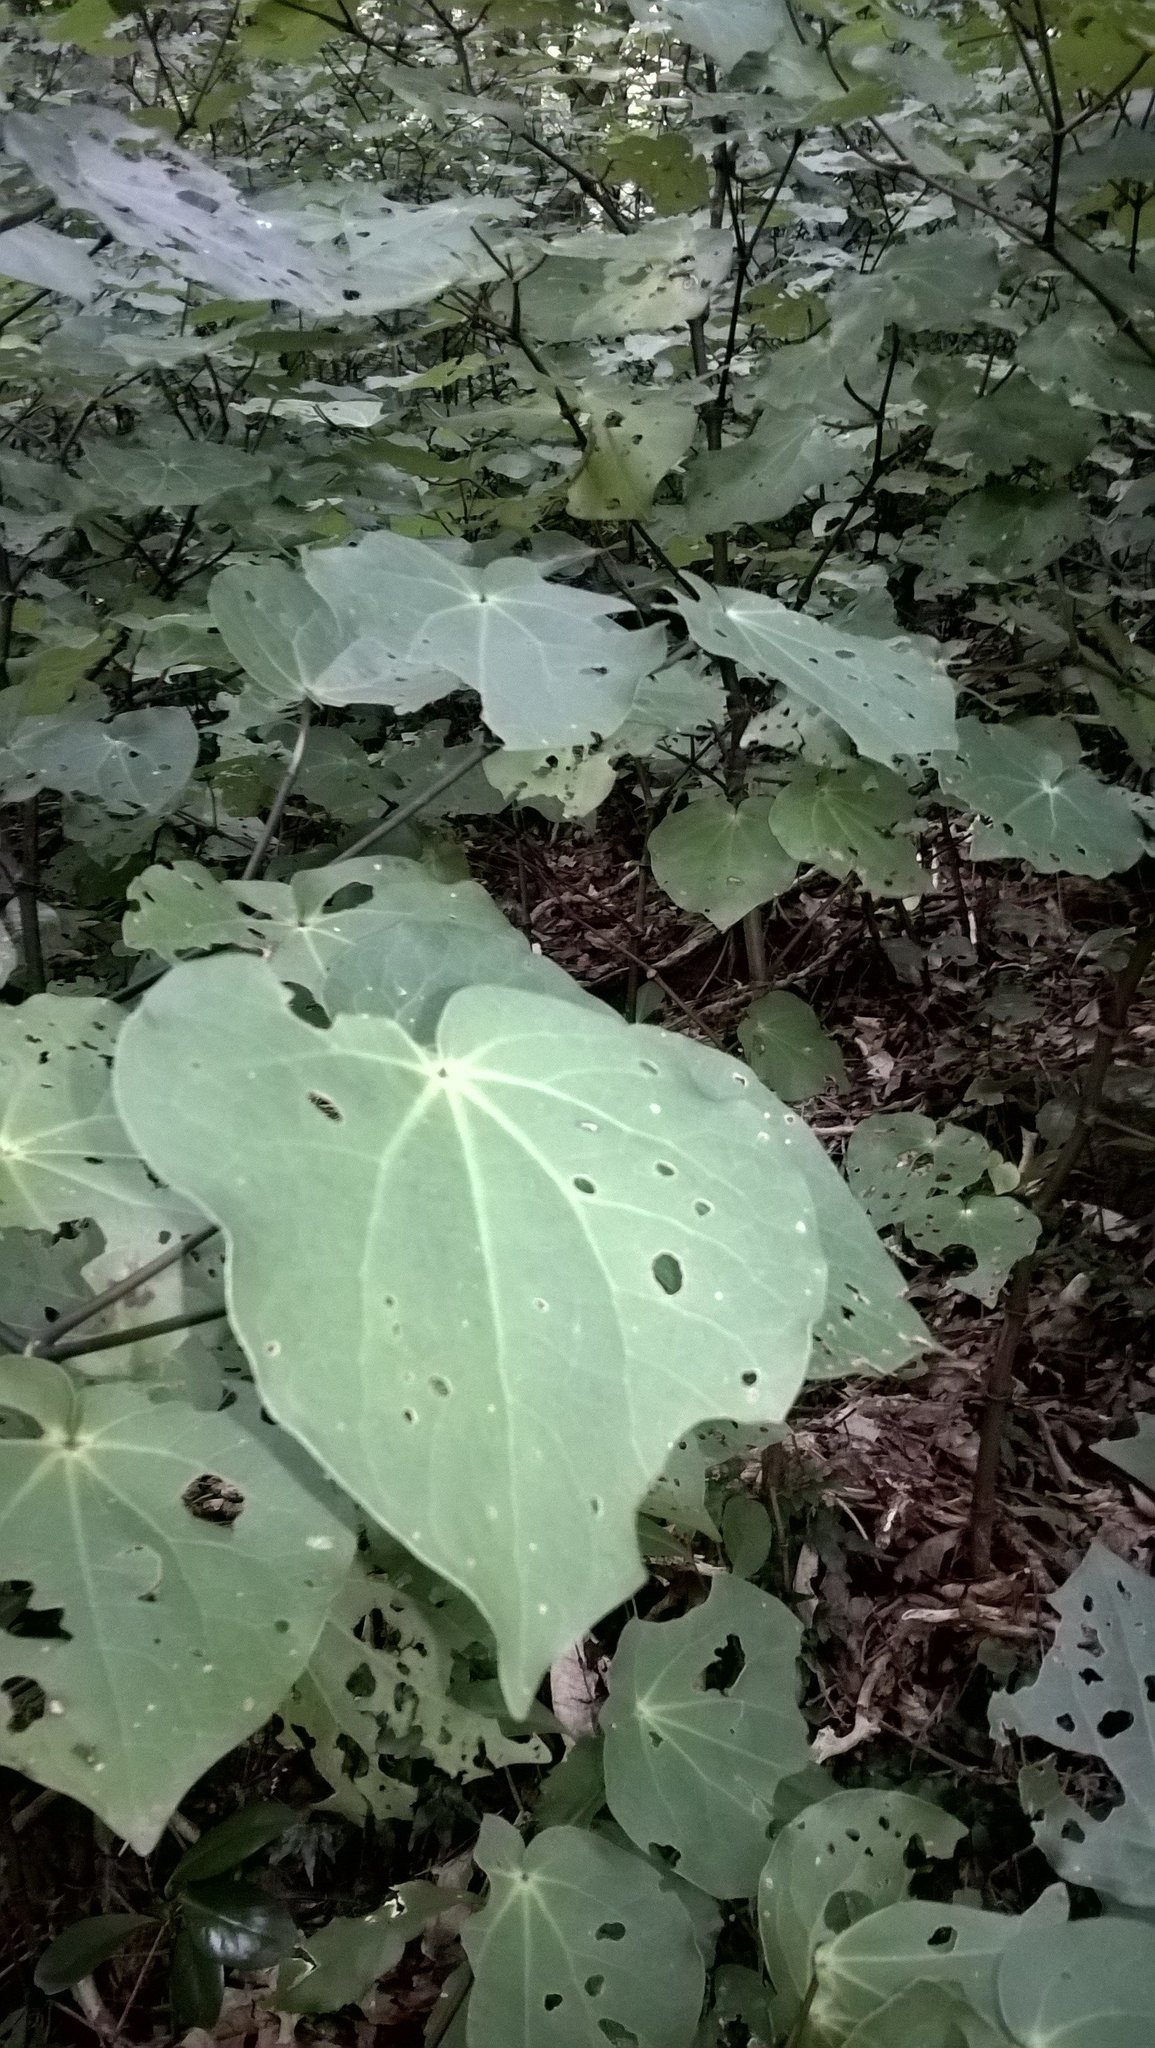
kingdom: Plantae
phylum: Tracheophyta
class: Magnoliopsida
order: Piperales
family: Piperaceae
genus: Macropiper
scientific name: Macropiper excelsum
